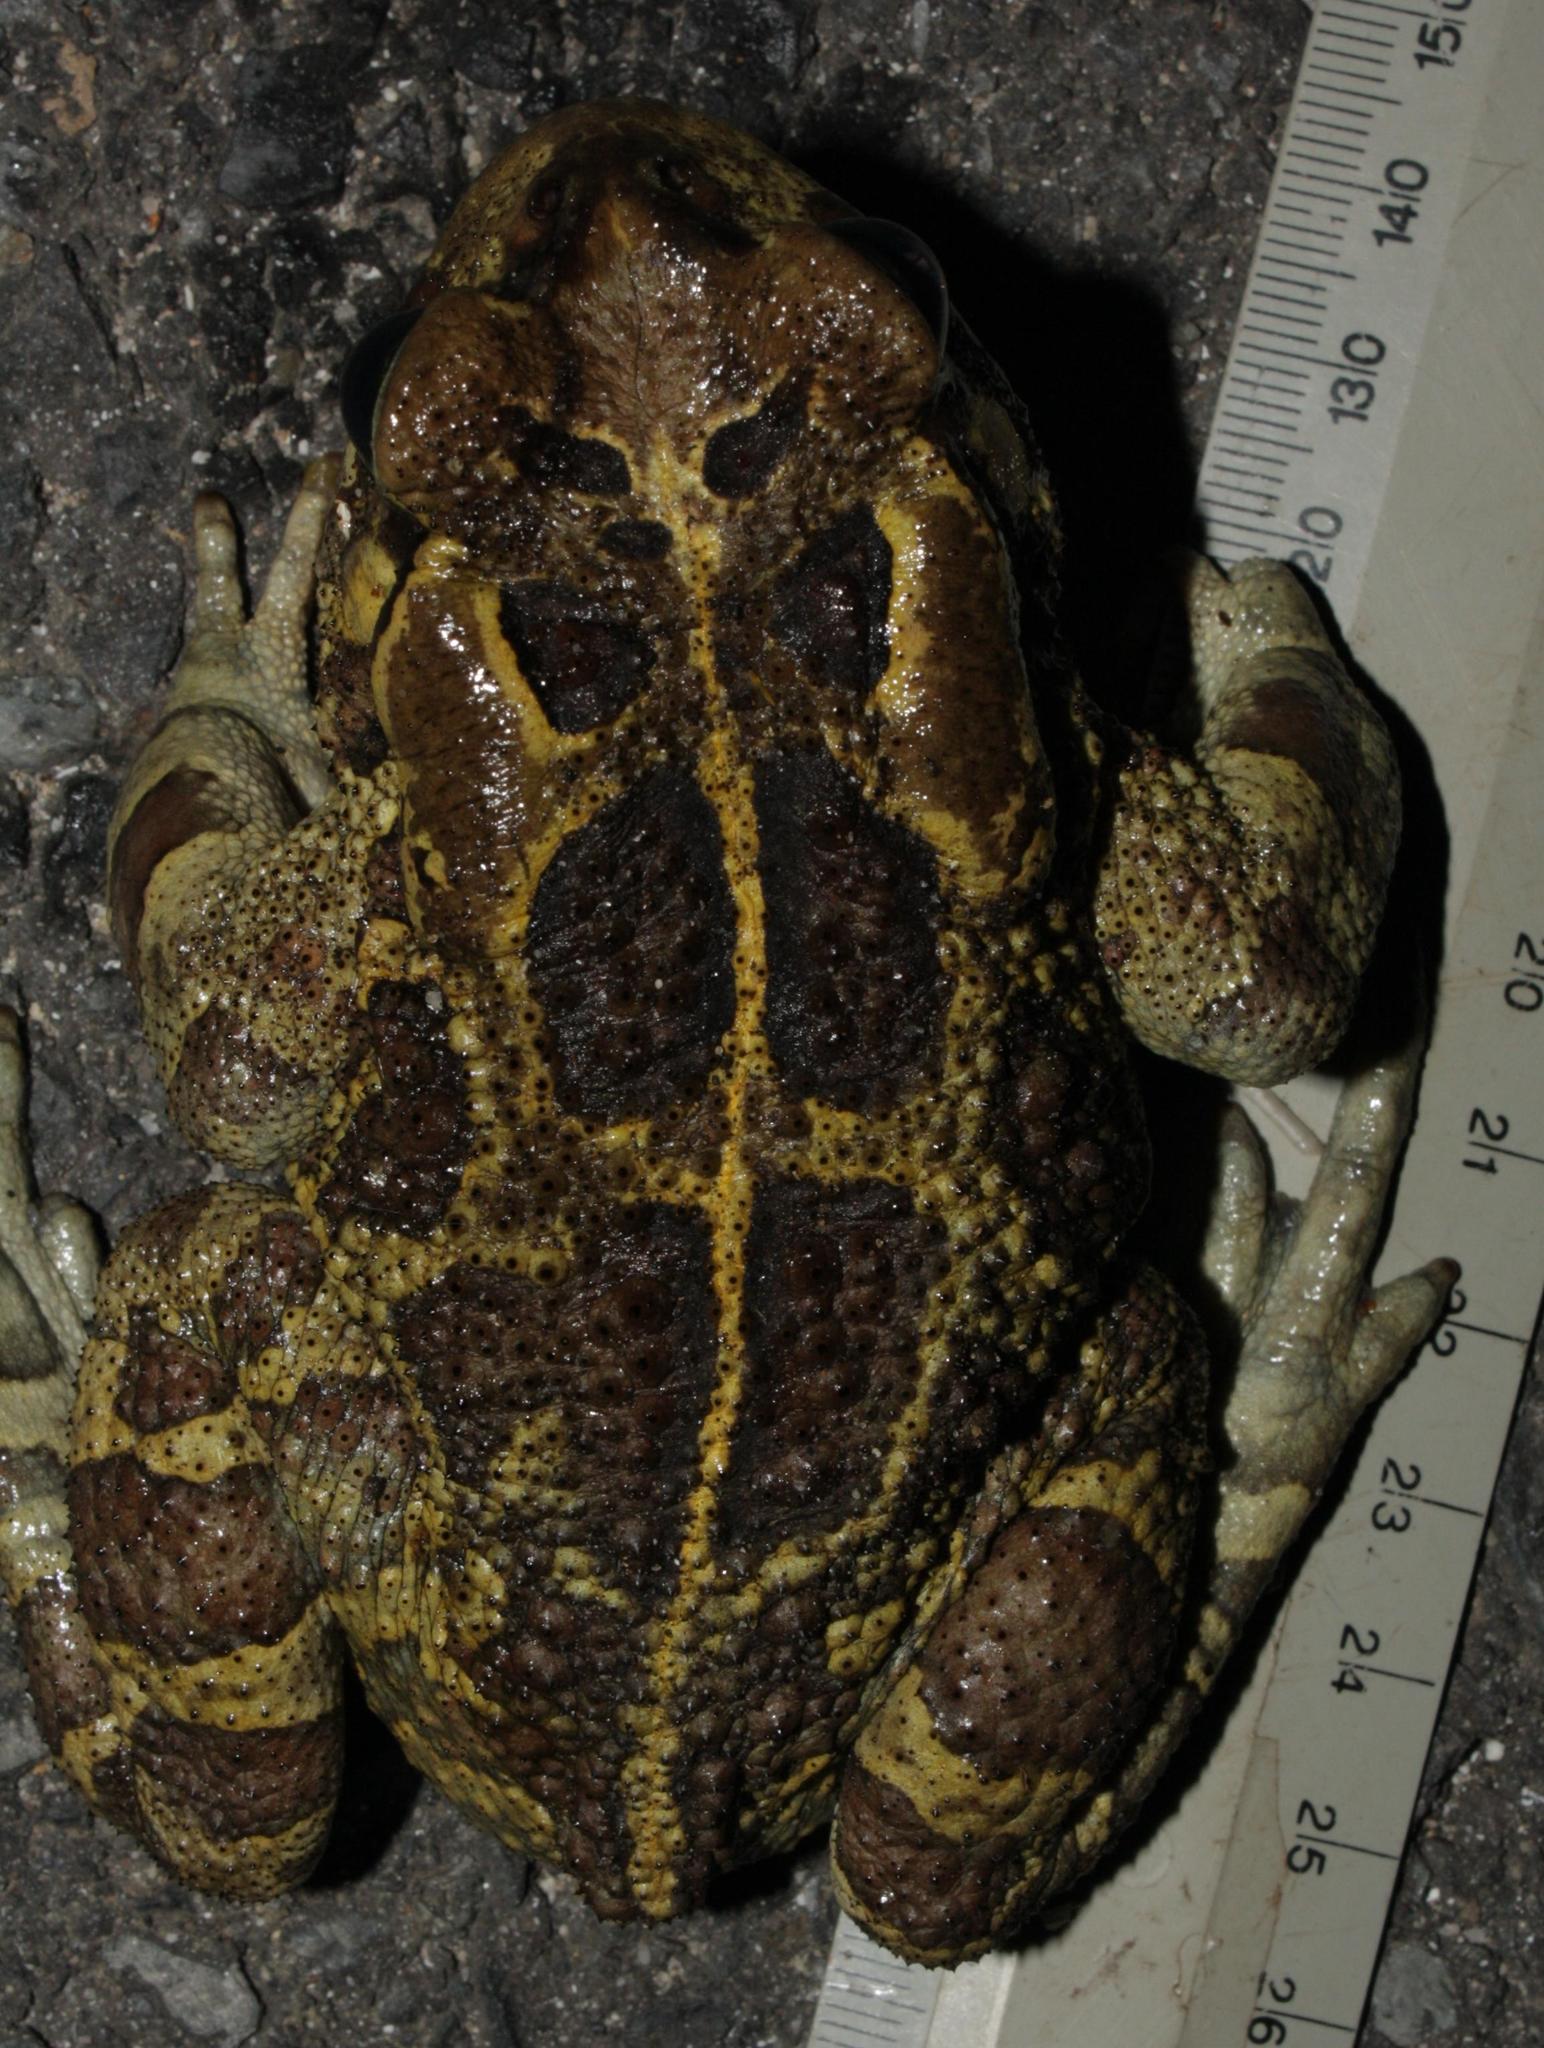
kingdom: Animalia
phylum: Chordata
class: Amphibia
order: Anura
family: Bufonidae
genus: Sclerophrys
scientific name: Sclerophrys pantherina
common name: Panther toad
